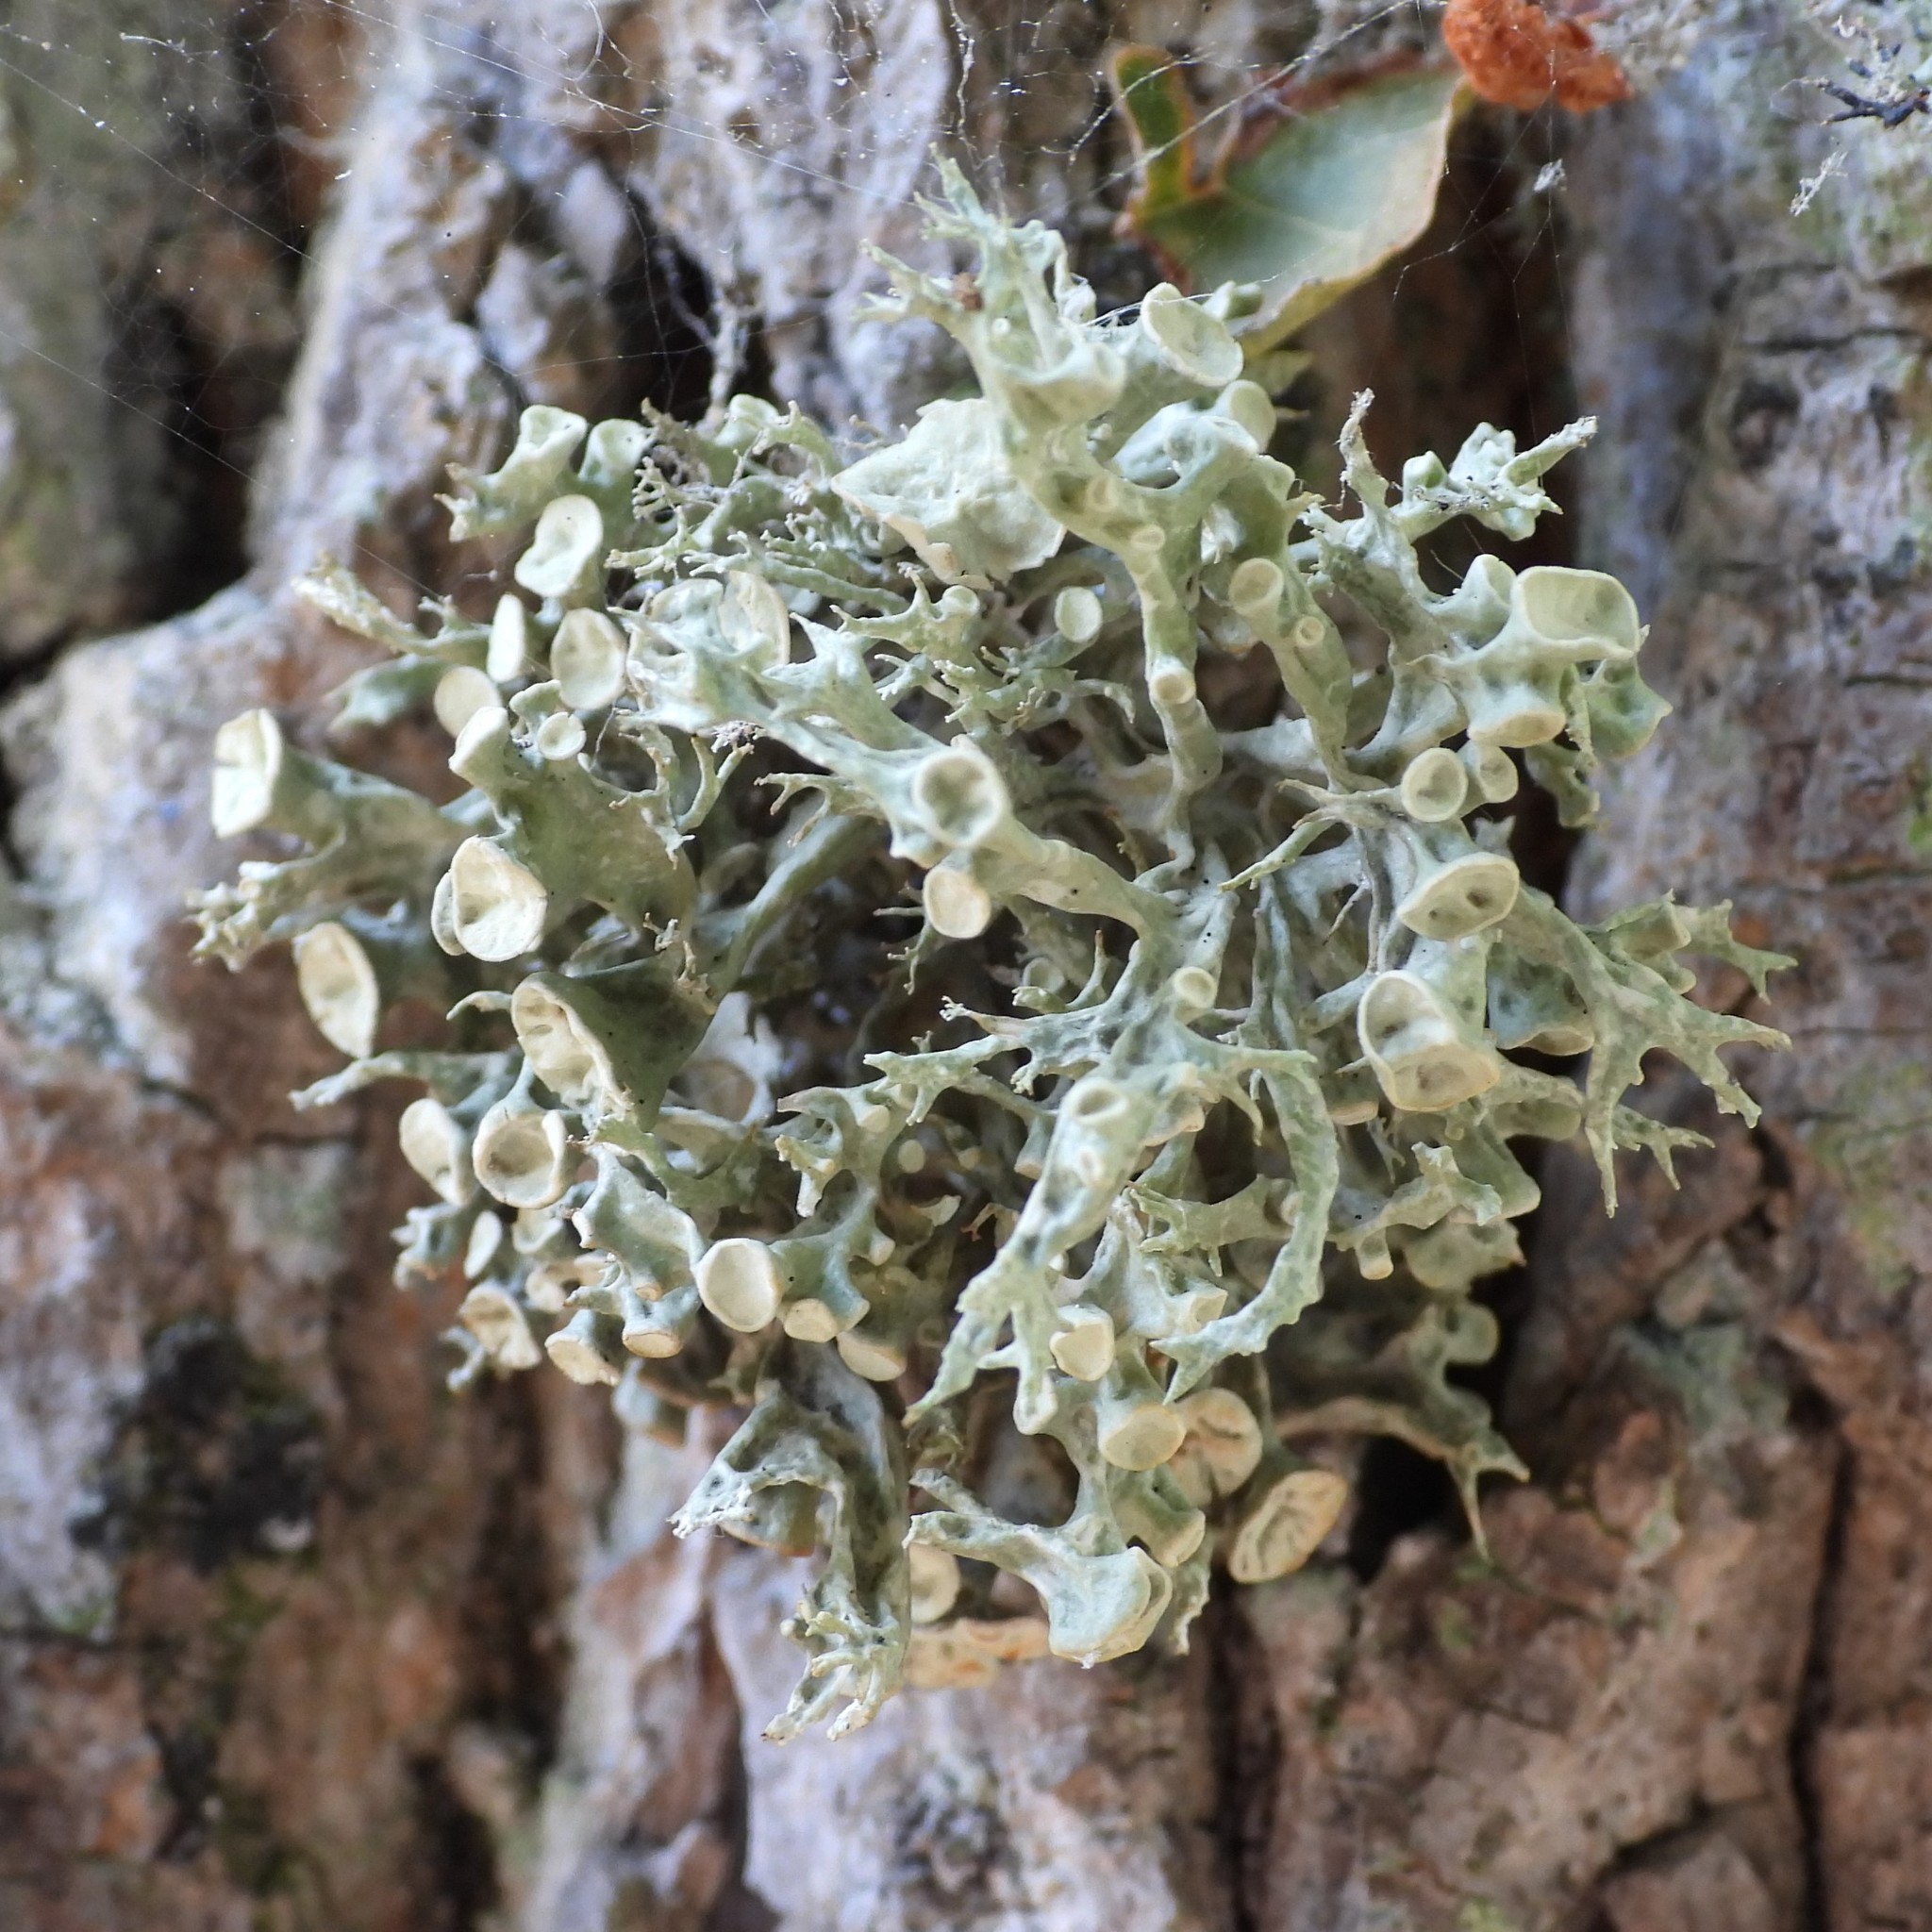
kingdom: Fungi
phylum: Ascomycota
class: Lecanoromycetes
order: Lecanorales
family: Ramalinaceae
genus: Ramalina
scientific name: Ramalina fastigiata
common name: Dotted ribbon lichen
